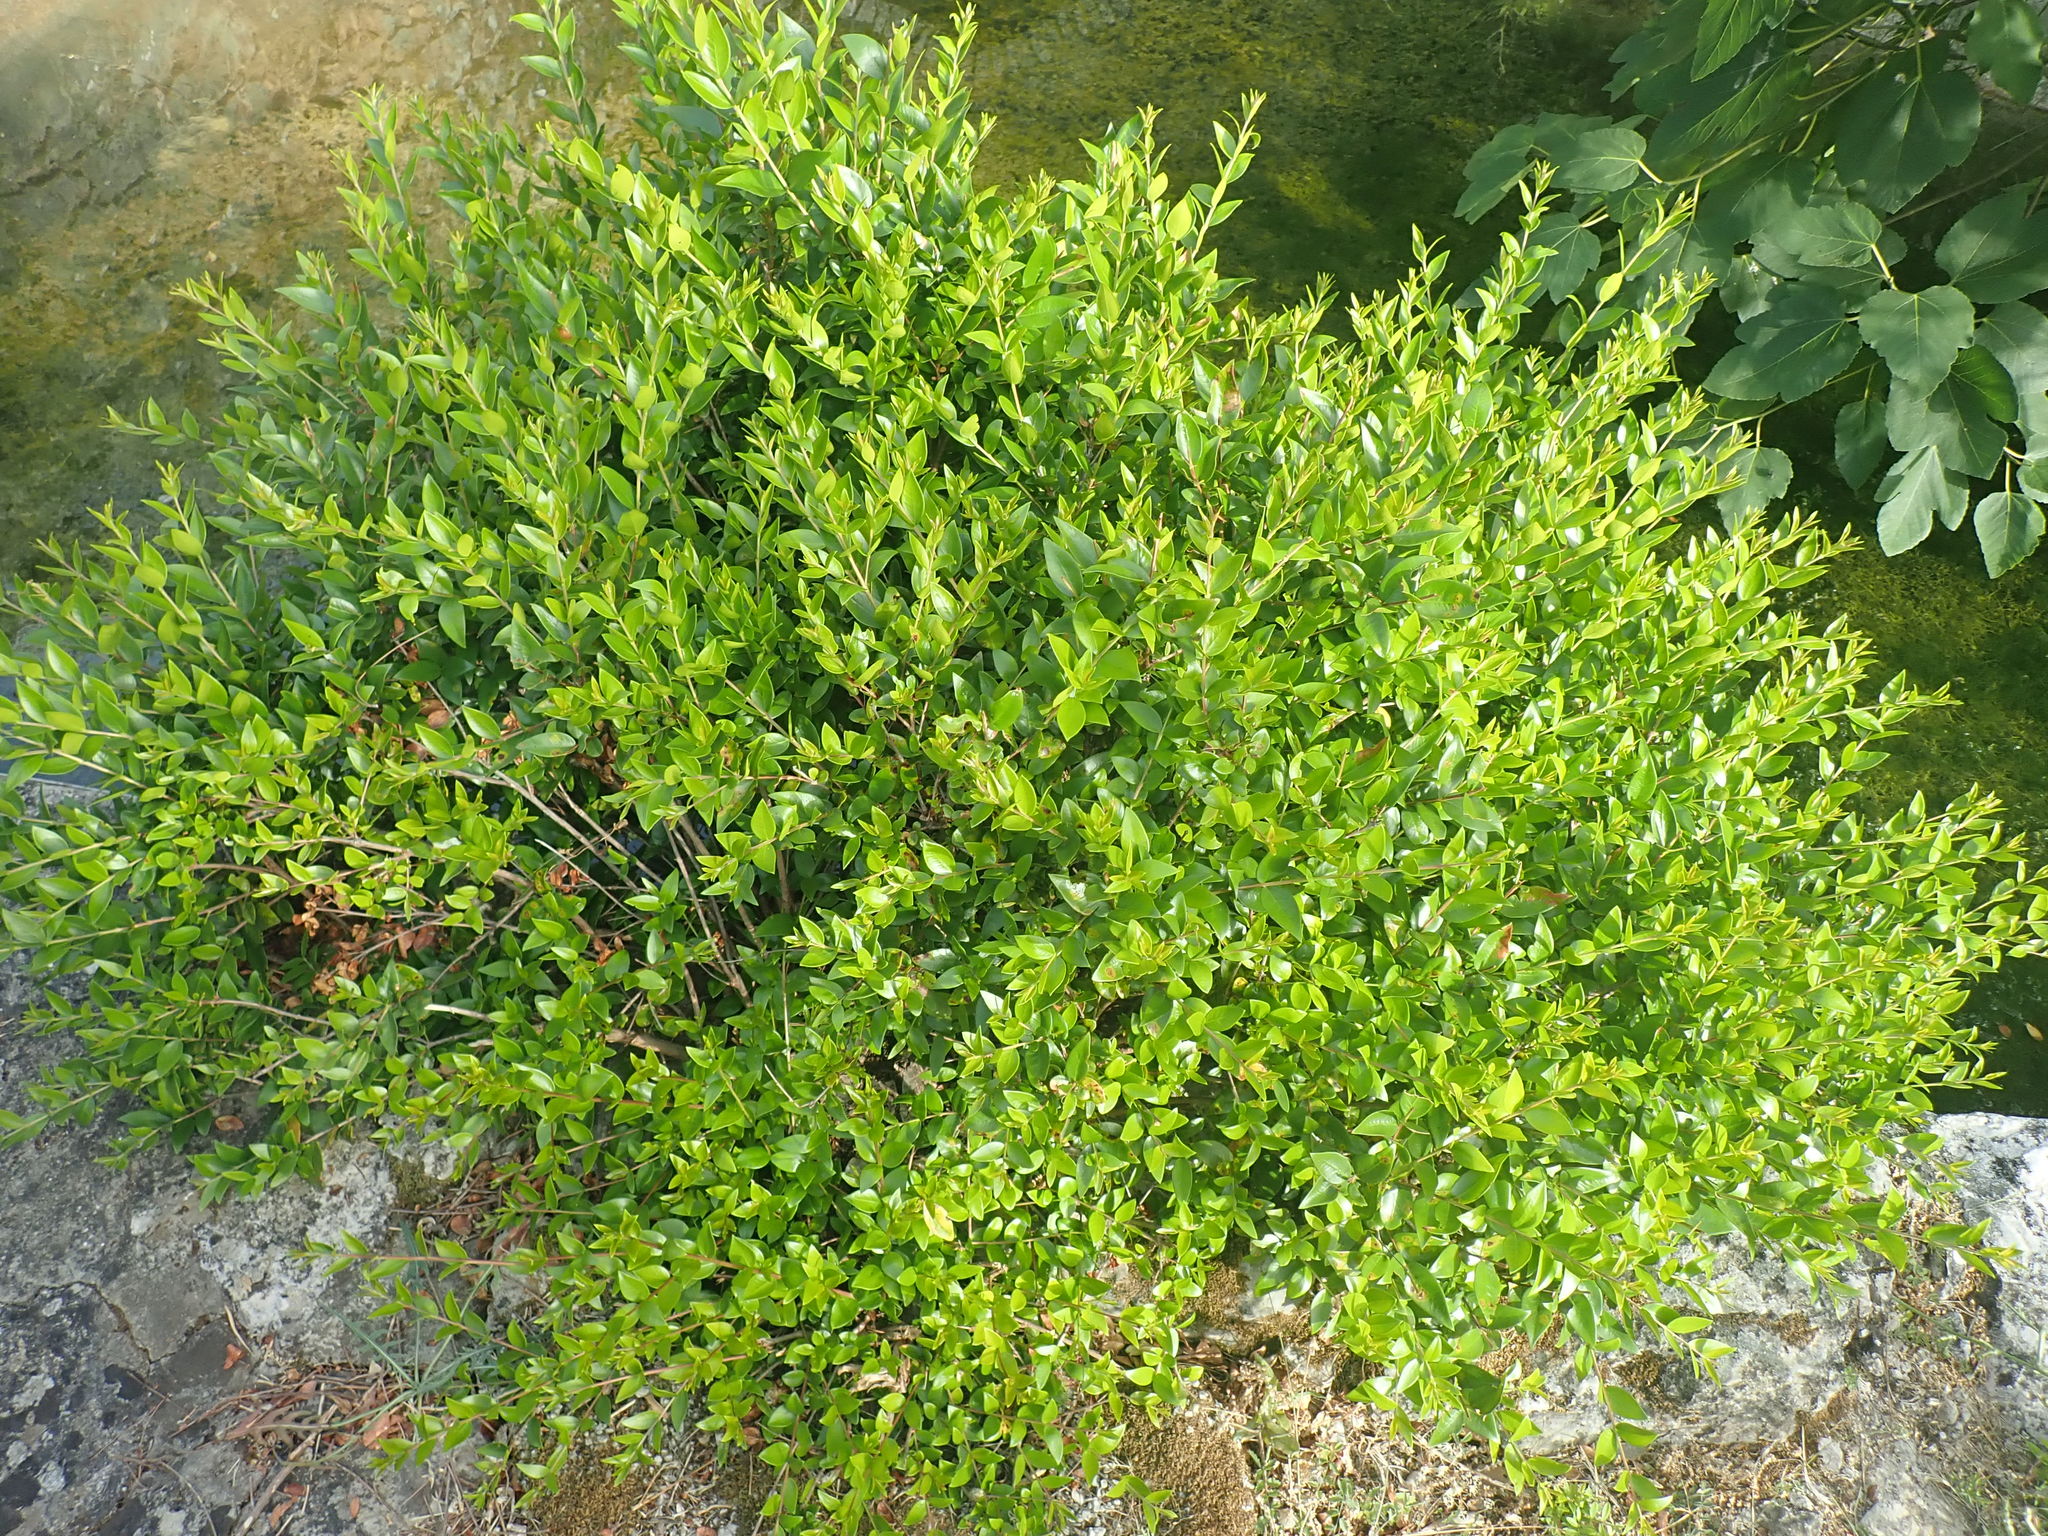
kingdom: Plantae
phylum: Tracheophyta
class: Magnoliopsida
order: Myrtales
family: Myrtaceae
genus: Myrtus
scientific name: Myrtus communis
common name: Myrtle
